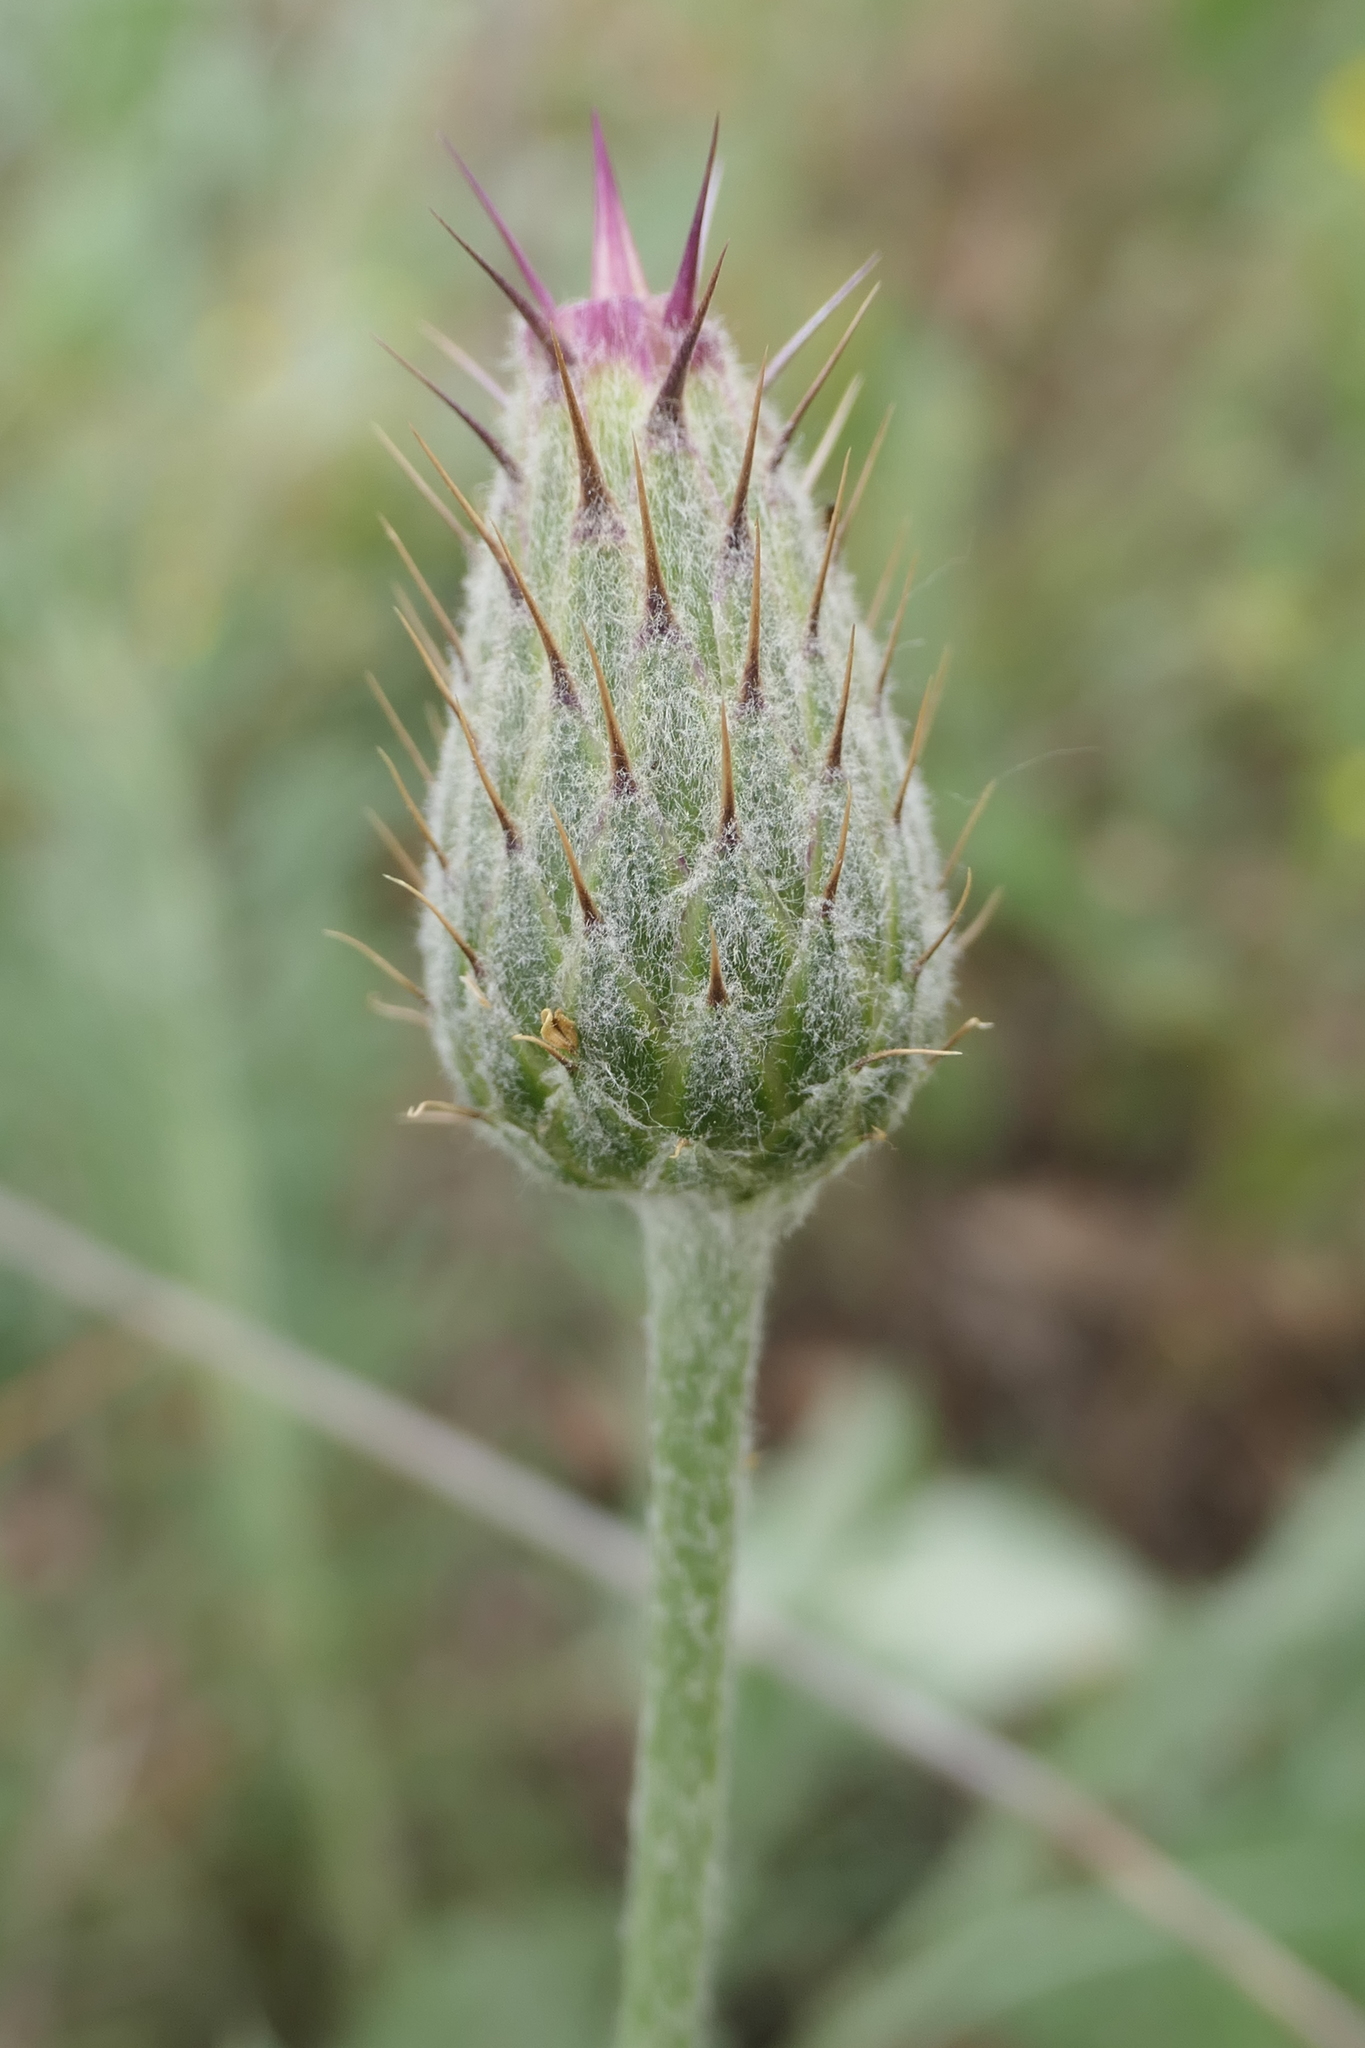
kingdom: Plantae
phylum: Tracheophyta
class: Magnoliopsida
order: Asterales
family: Asteraceae
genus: Klasea
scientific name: Klasea pinnatifida
